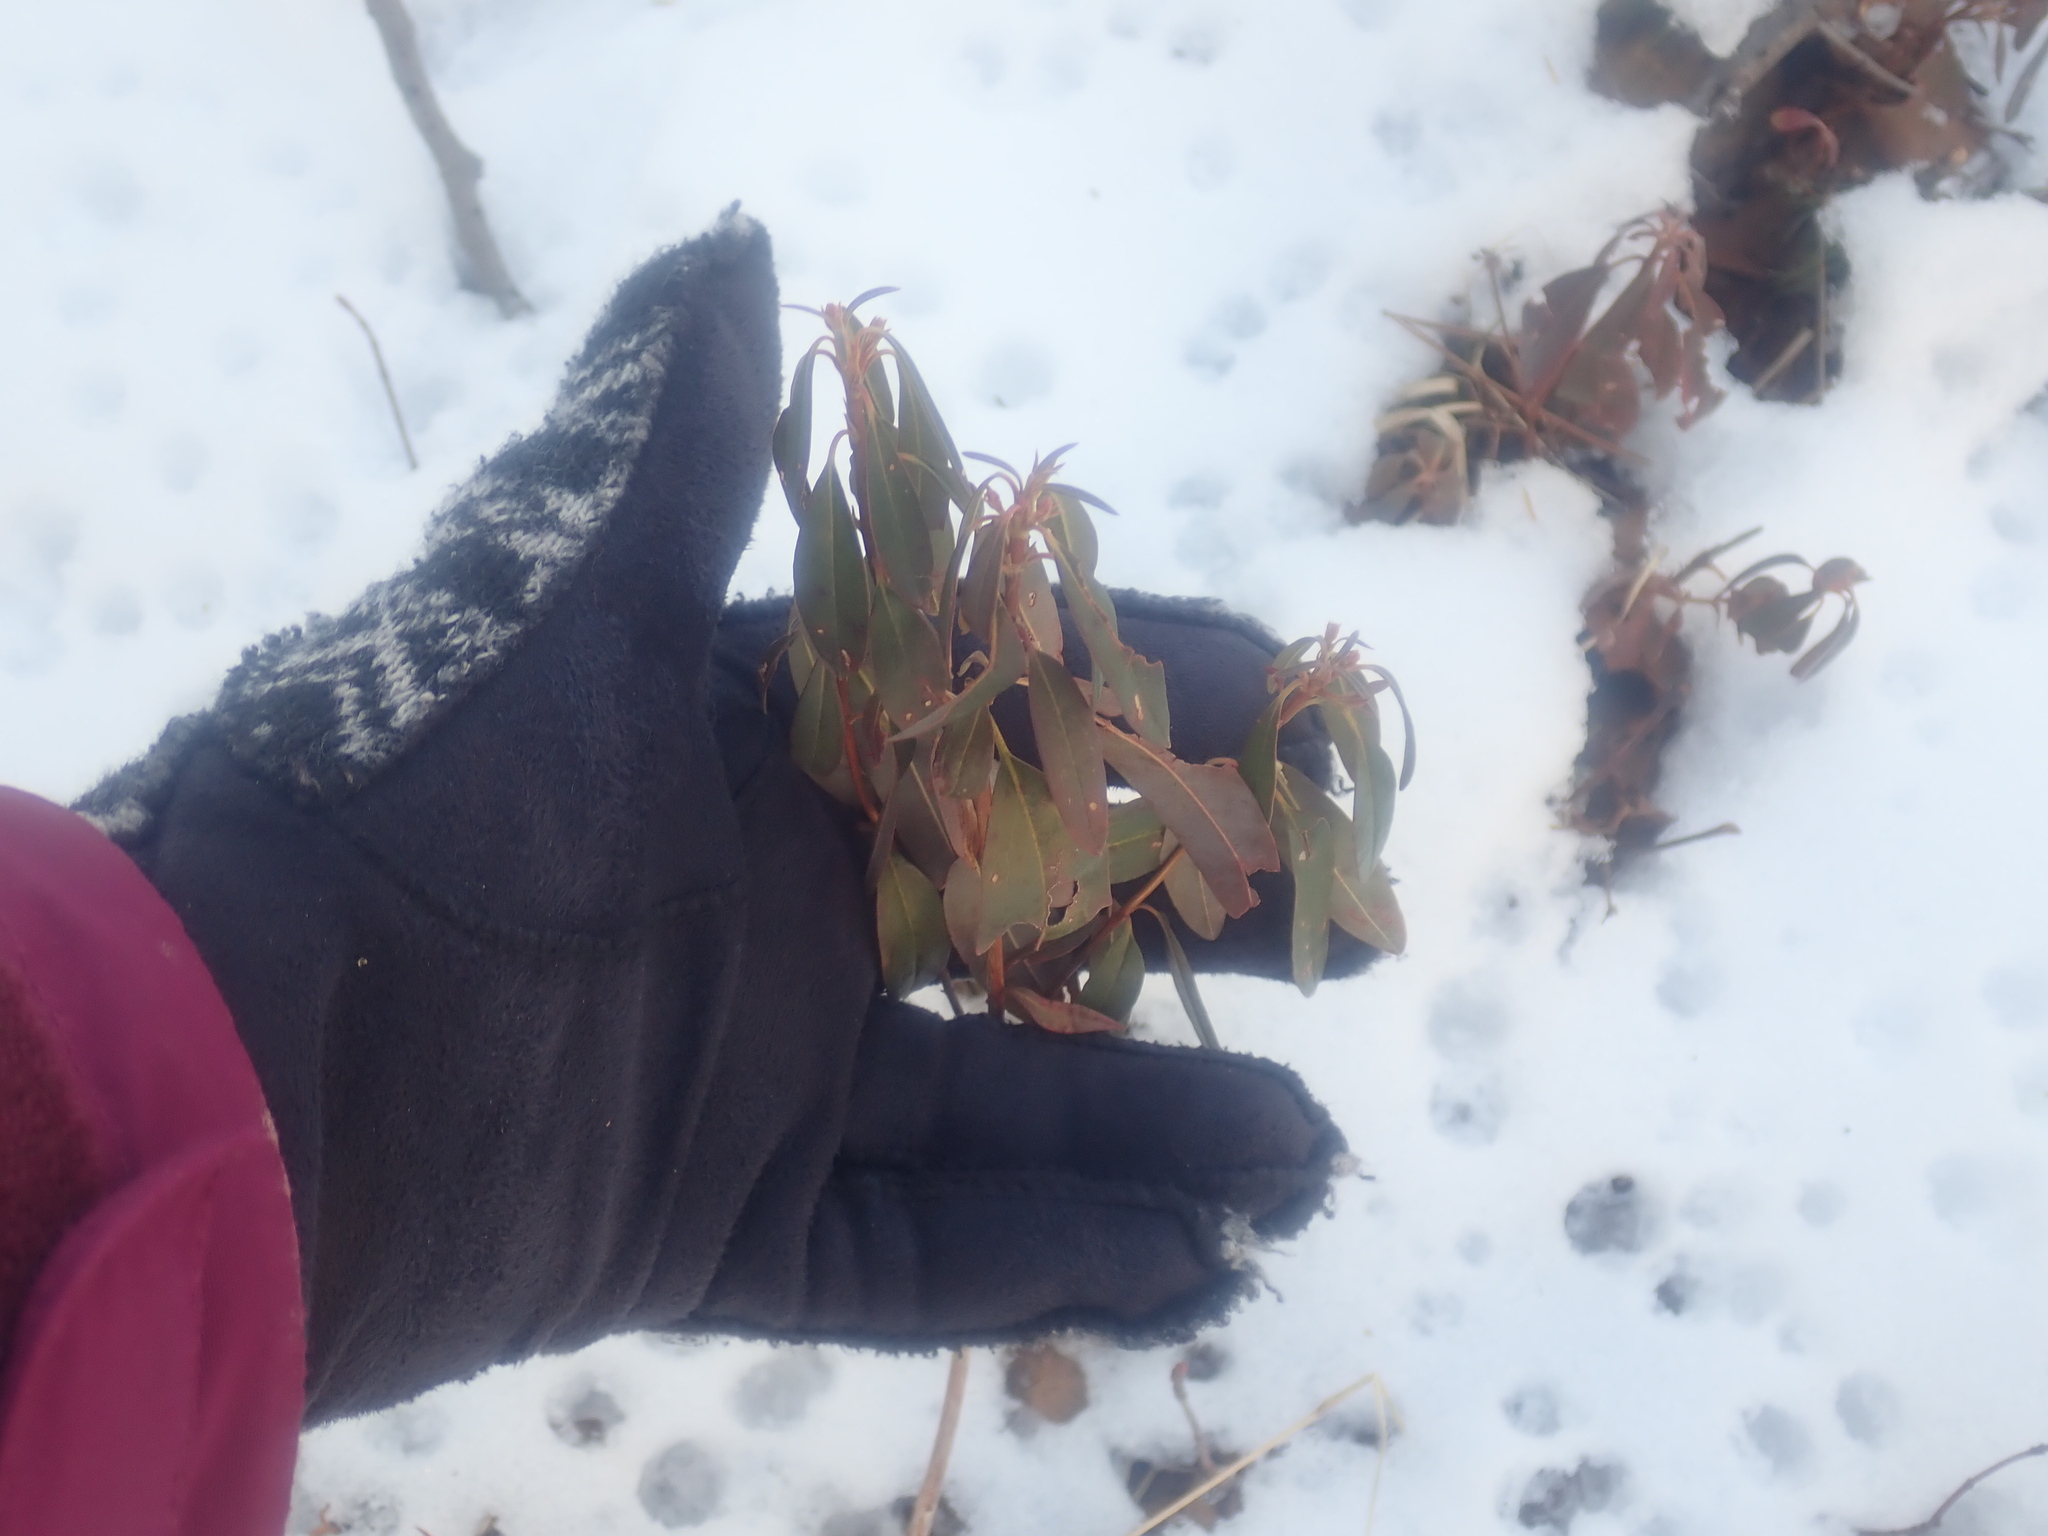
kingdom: Plantae
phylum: Tracheophyta
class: Magnoliopsida
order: Ericales
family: Ericaceae
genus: Kalmia
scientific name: Kalmia angustifolia
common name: Sheep-laurel
